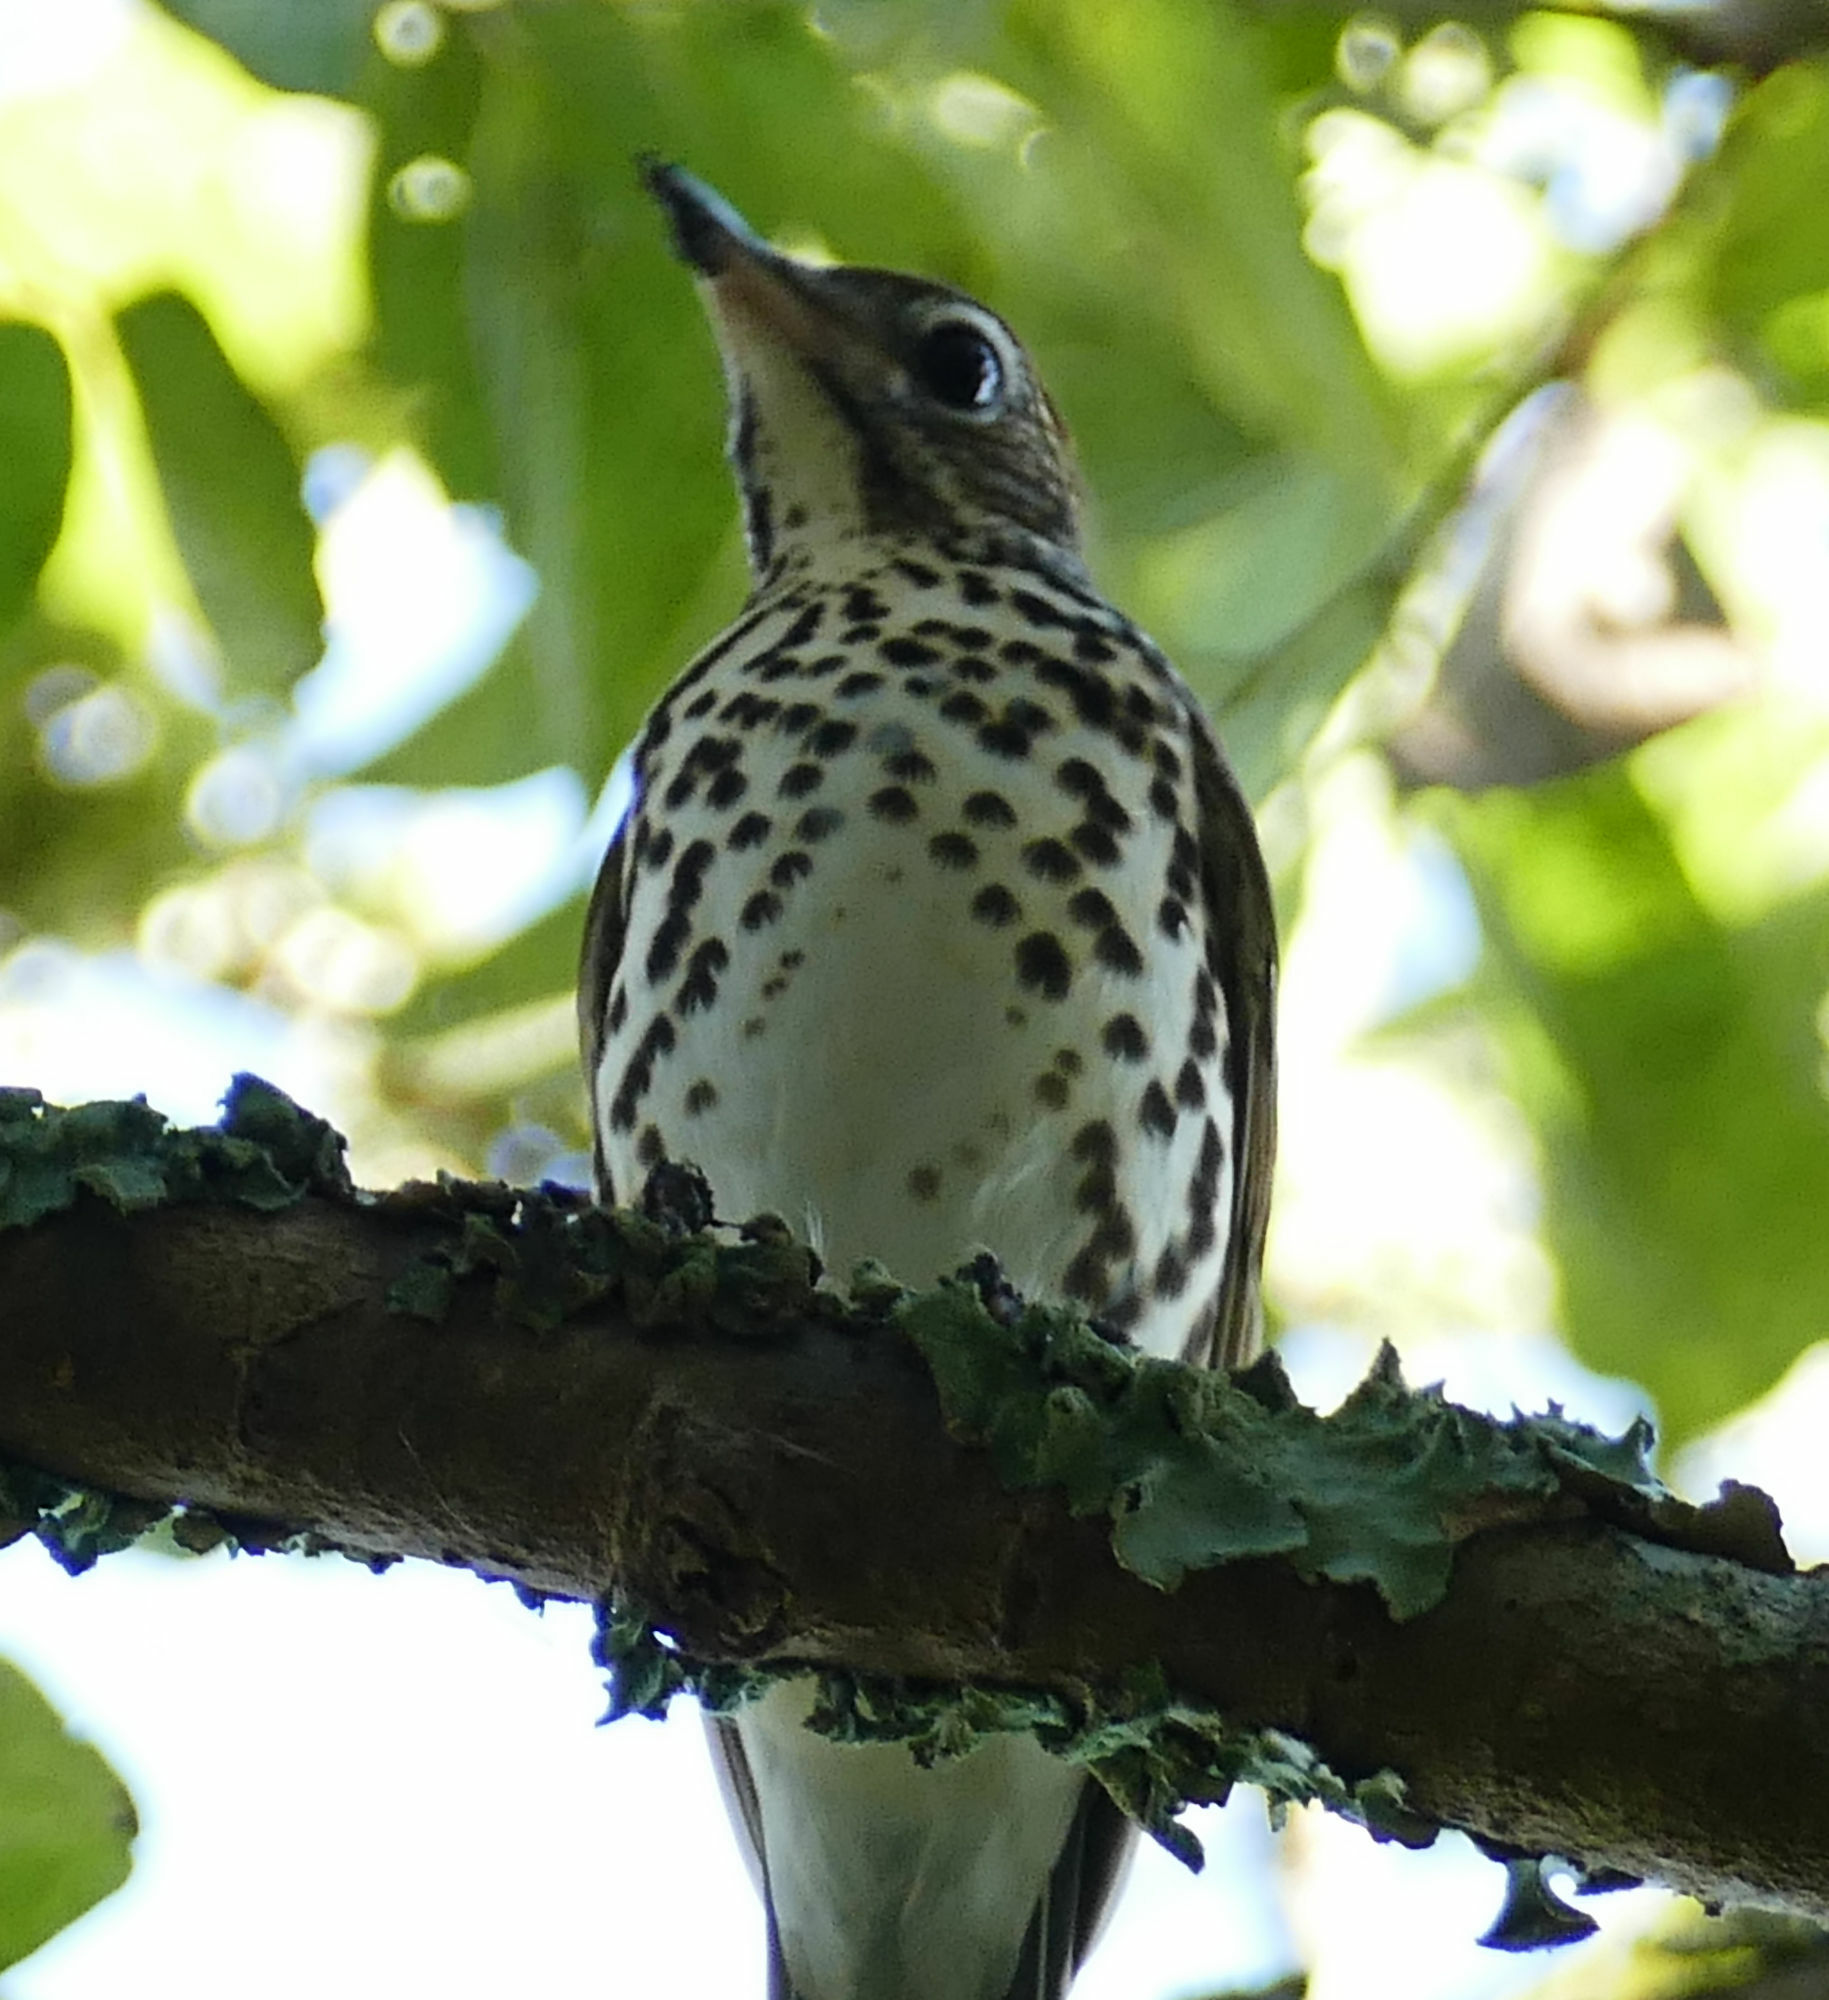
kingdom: Animalia
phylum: Chordata
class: Aves
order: Passeriformes
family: Turdidae
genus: Hylocichla
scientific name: Hylocichla mustelina
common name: Wood thrush
